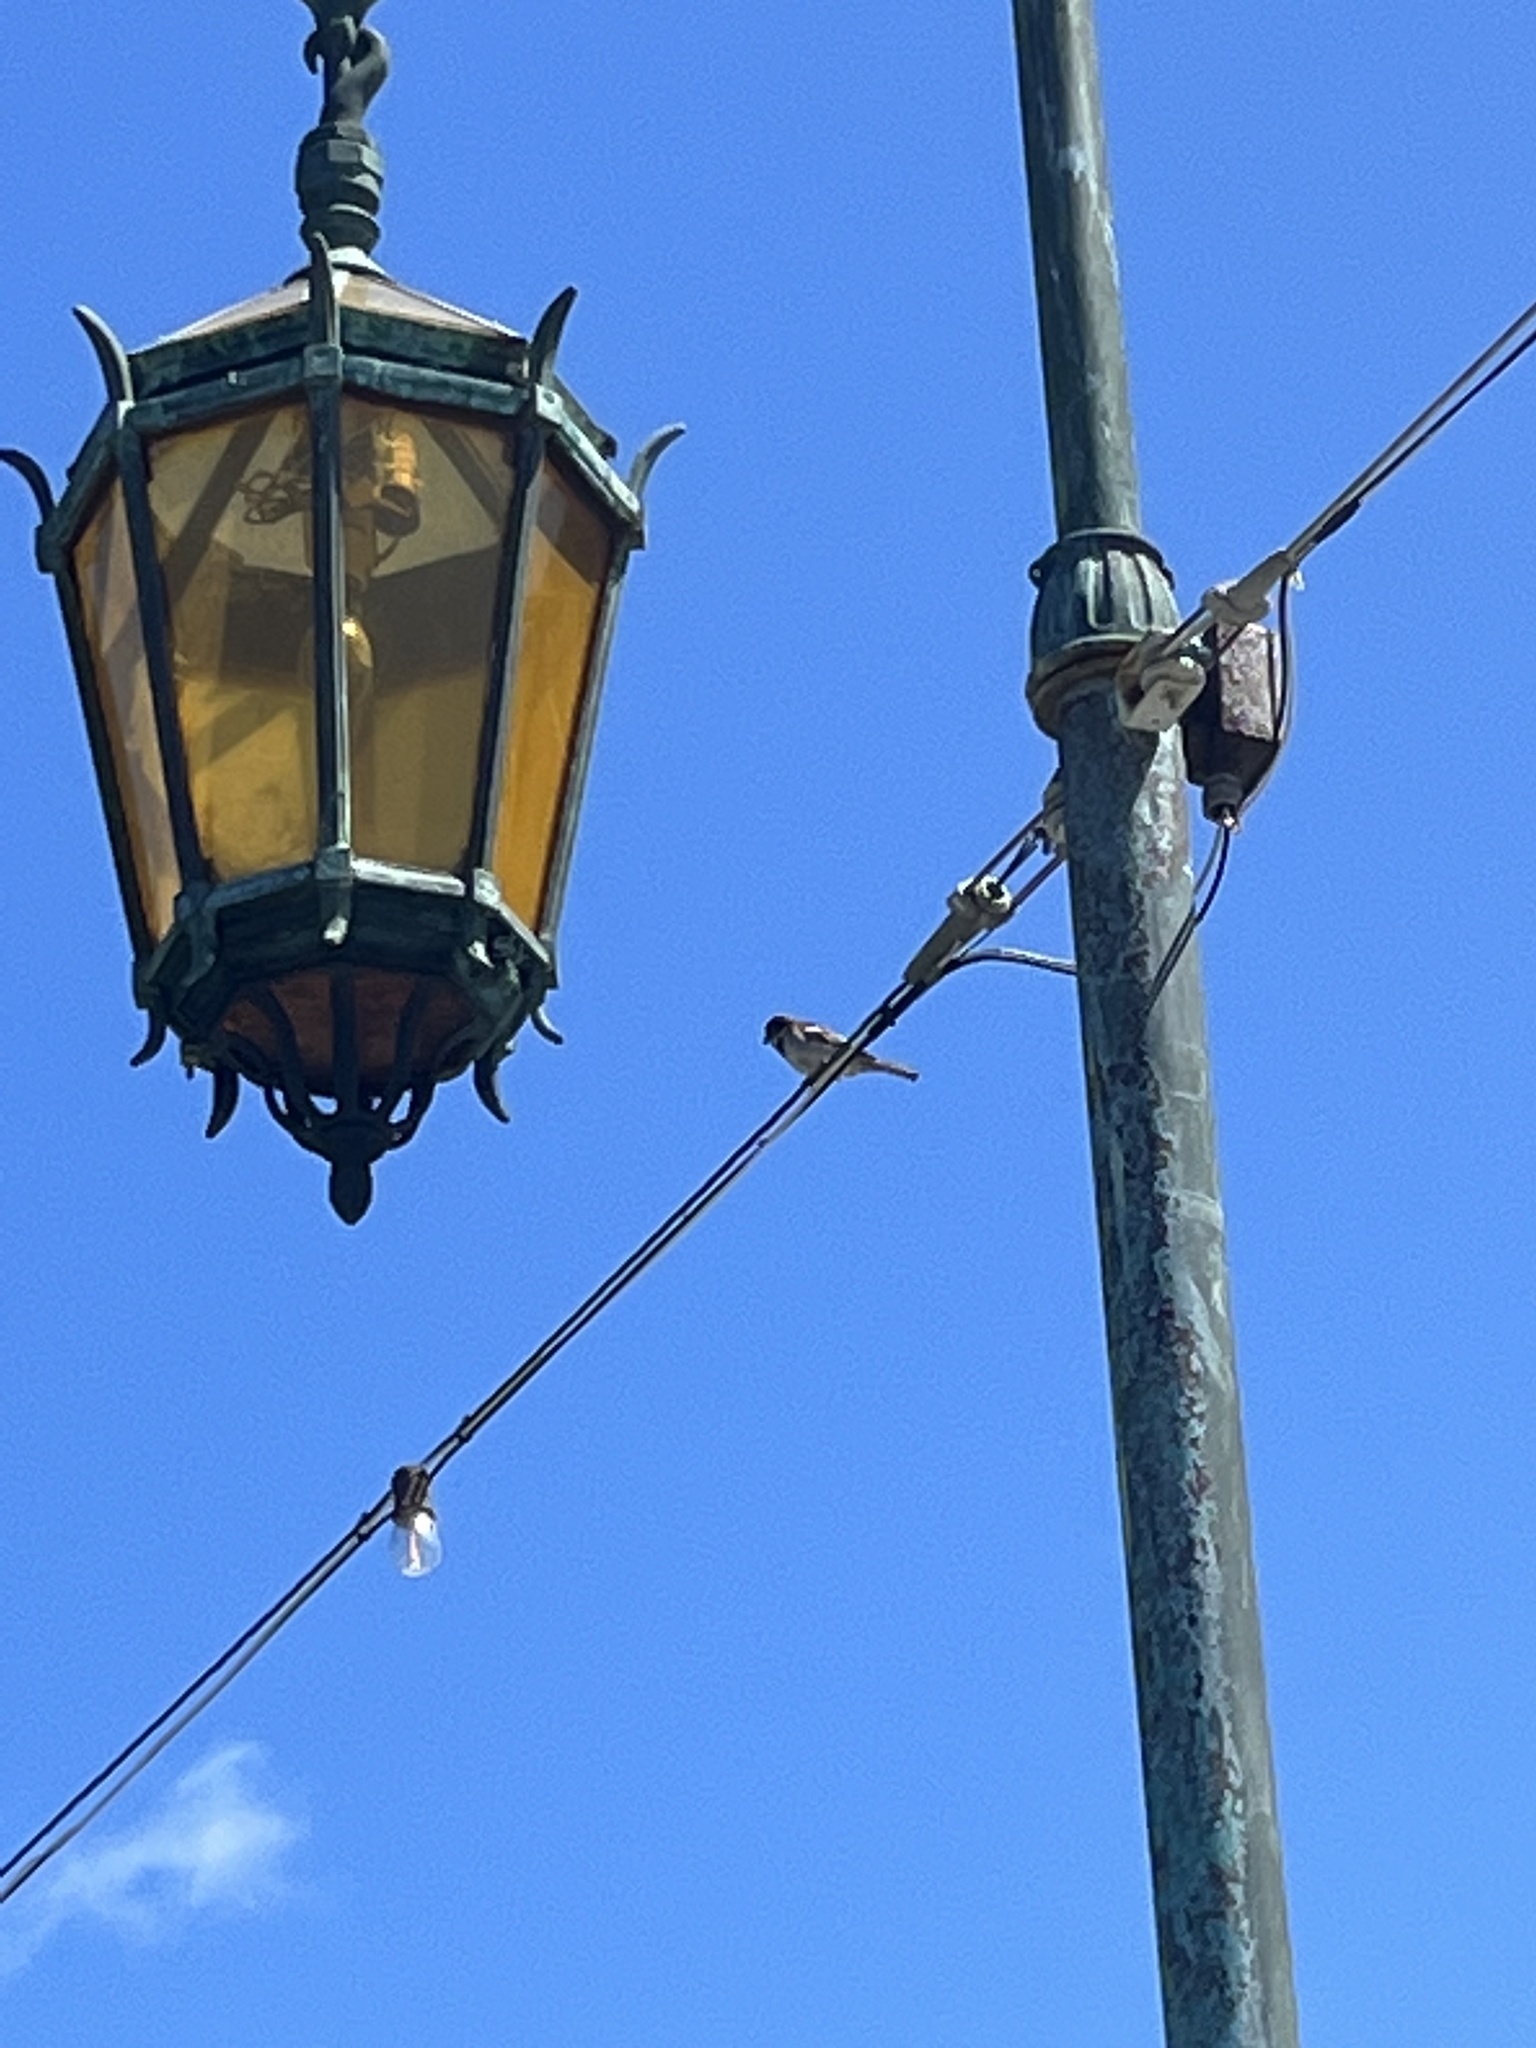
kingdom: Animalia
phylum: Chordata
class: Aves
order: Passeriformes
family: Passeridae
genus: Passer
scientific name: Passer domesticus
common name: House sparrow
